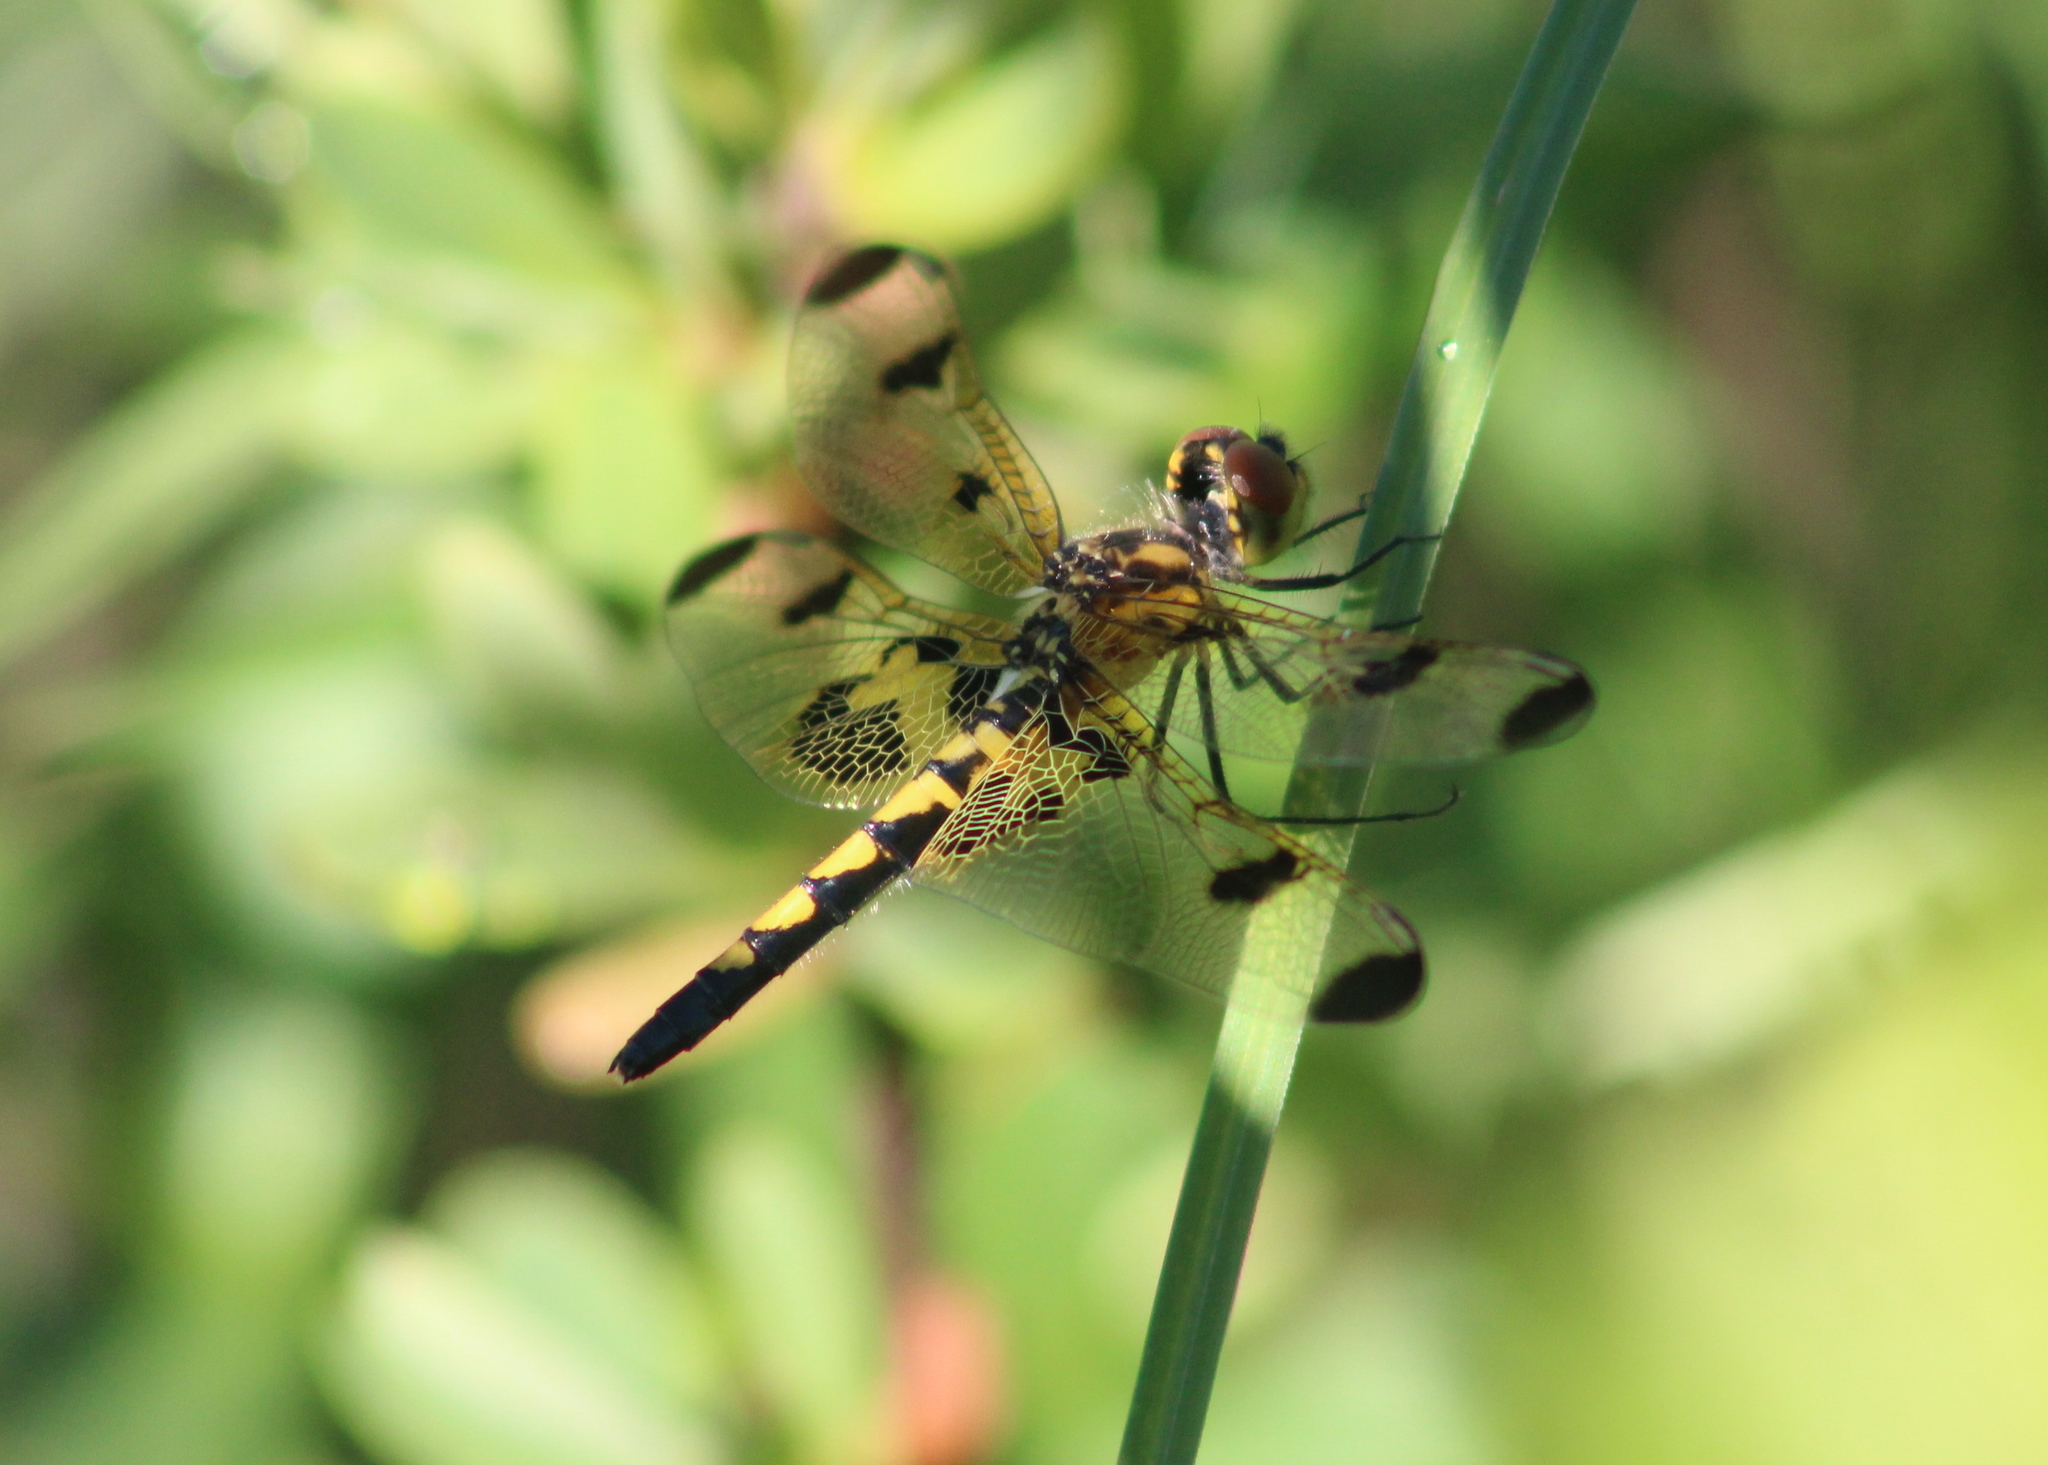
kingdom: Animalia
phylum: Arthropoda
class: Insecta
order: Odonata
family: Libellulidae
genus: Celithemis
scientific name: Celithemis elisa
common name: Calico pennant
